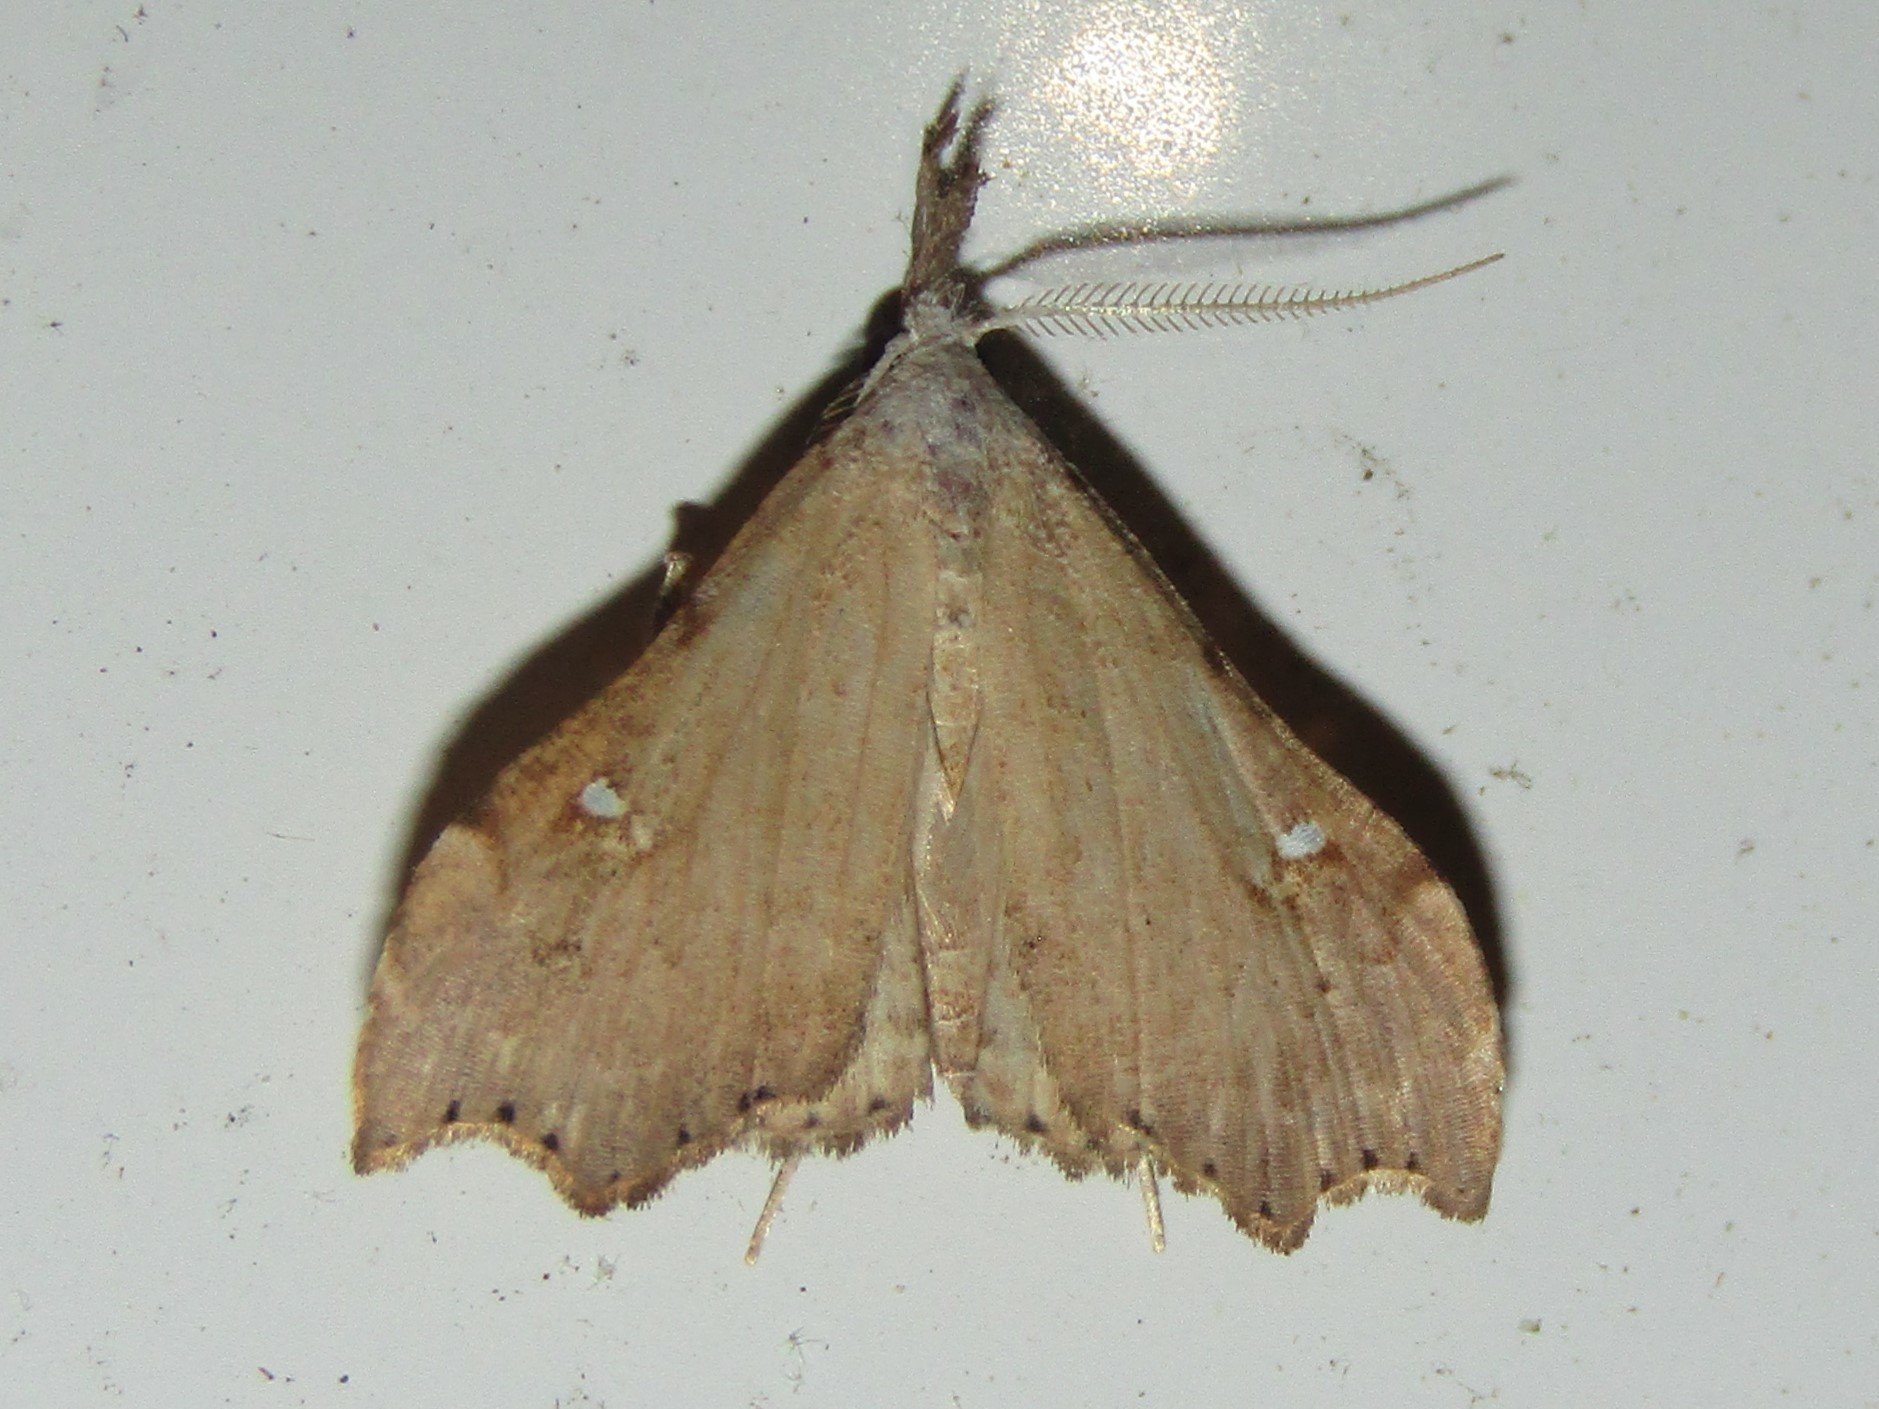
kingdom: Animalia
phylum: Arthropoda
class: Insecta
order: Lepidoptera
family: Erebidae
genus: Redectis
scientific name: Redectis vitrea
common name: White-spotted redectis
